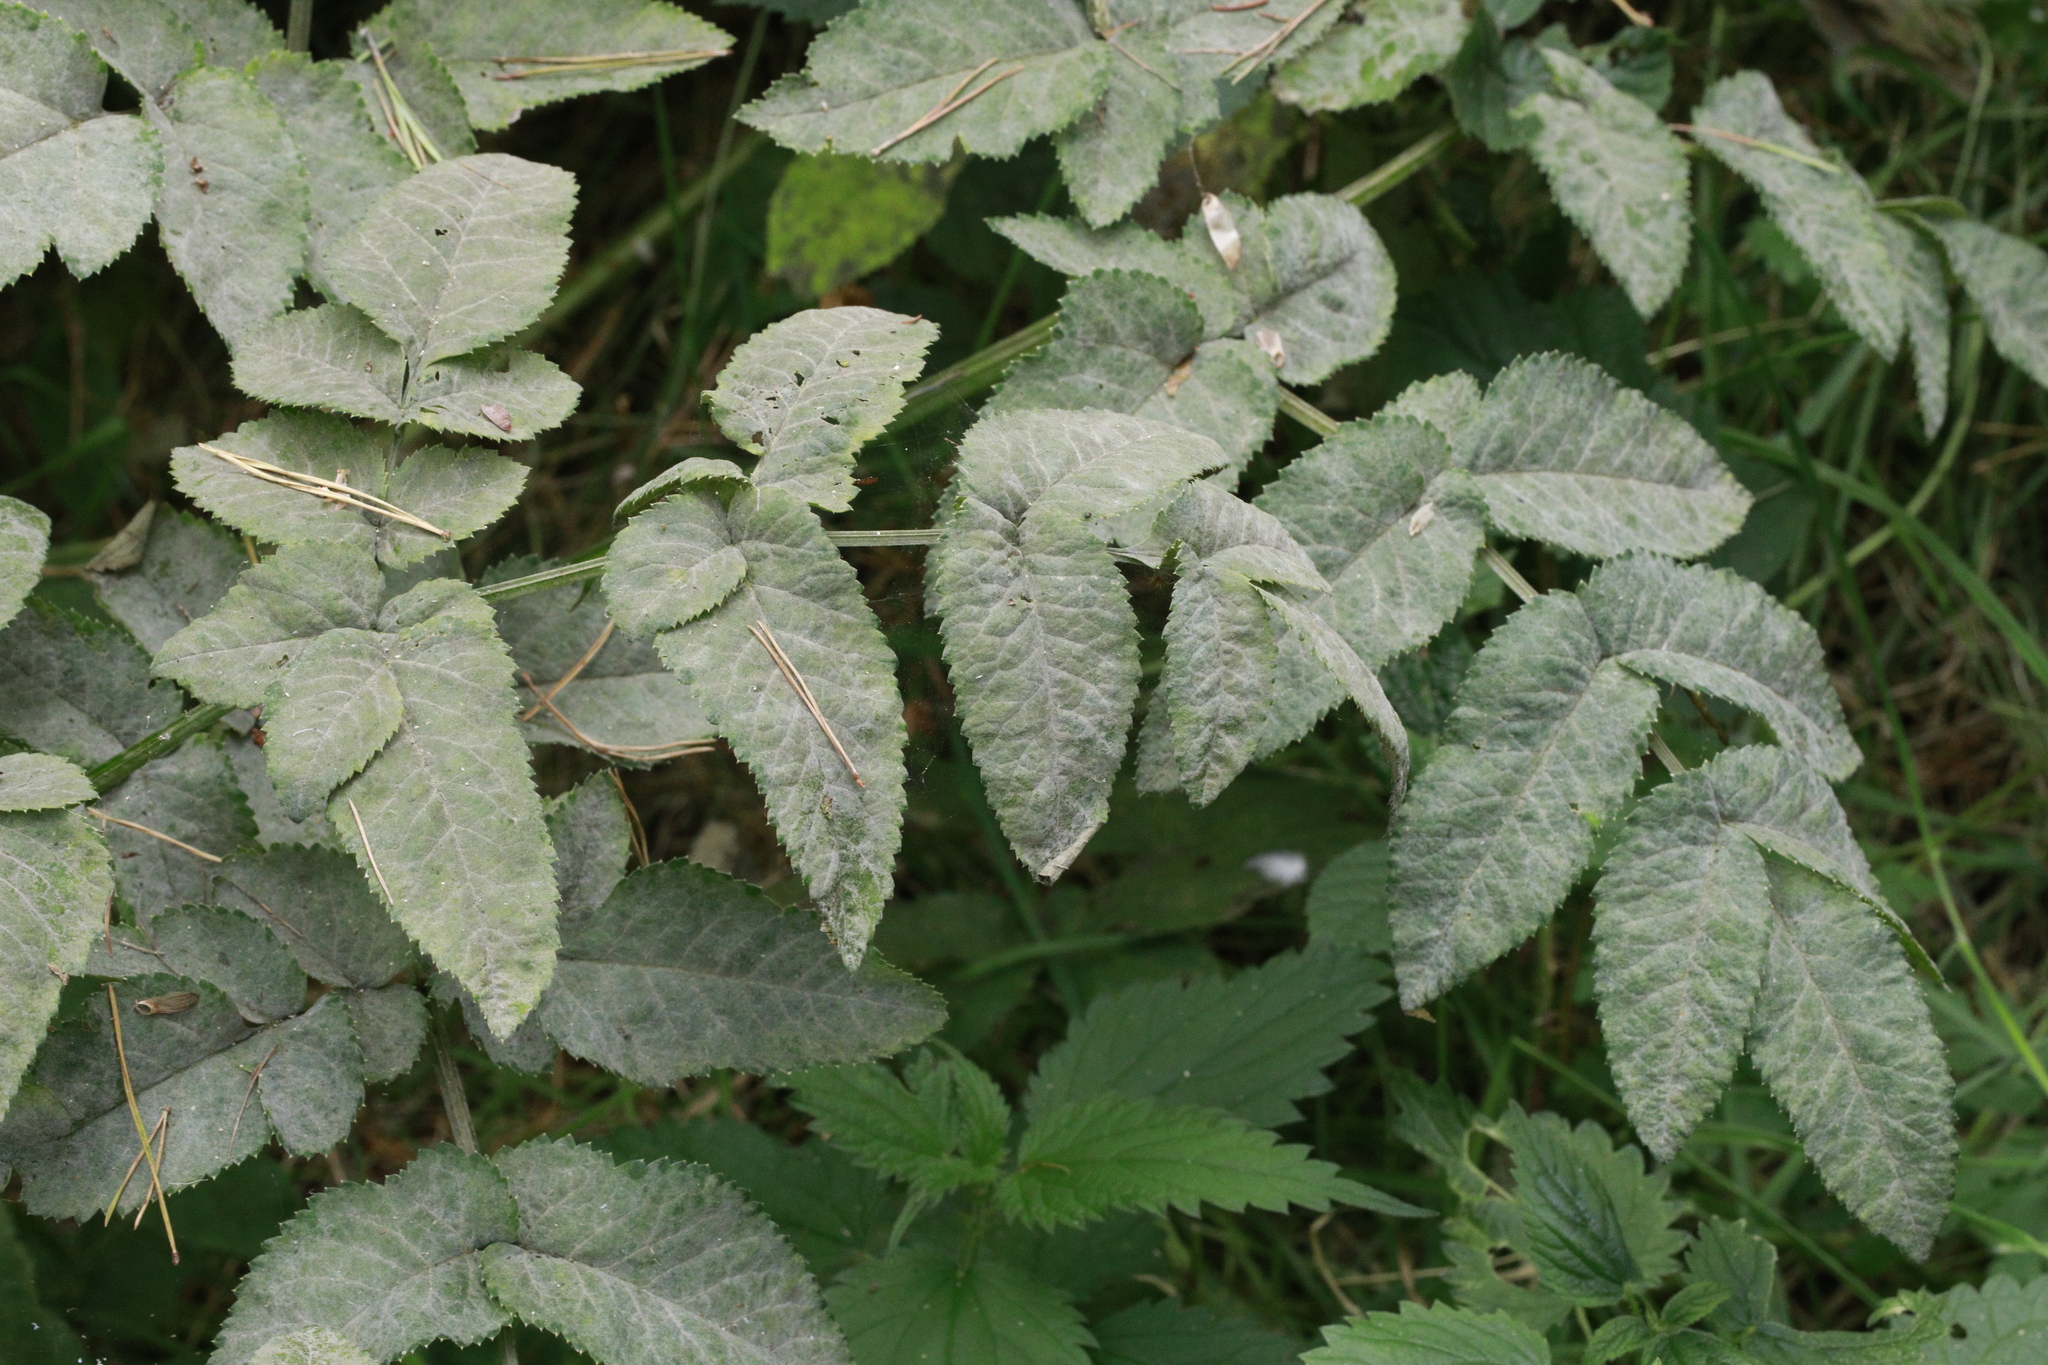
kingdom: Fungi
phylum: Ascomycota
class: Leotiomycetes
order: Helotiales
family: Erysiphaceae
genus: Erysiphe
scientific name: Erysiphe heraclei
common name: Umbellifer mildew
